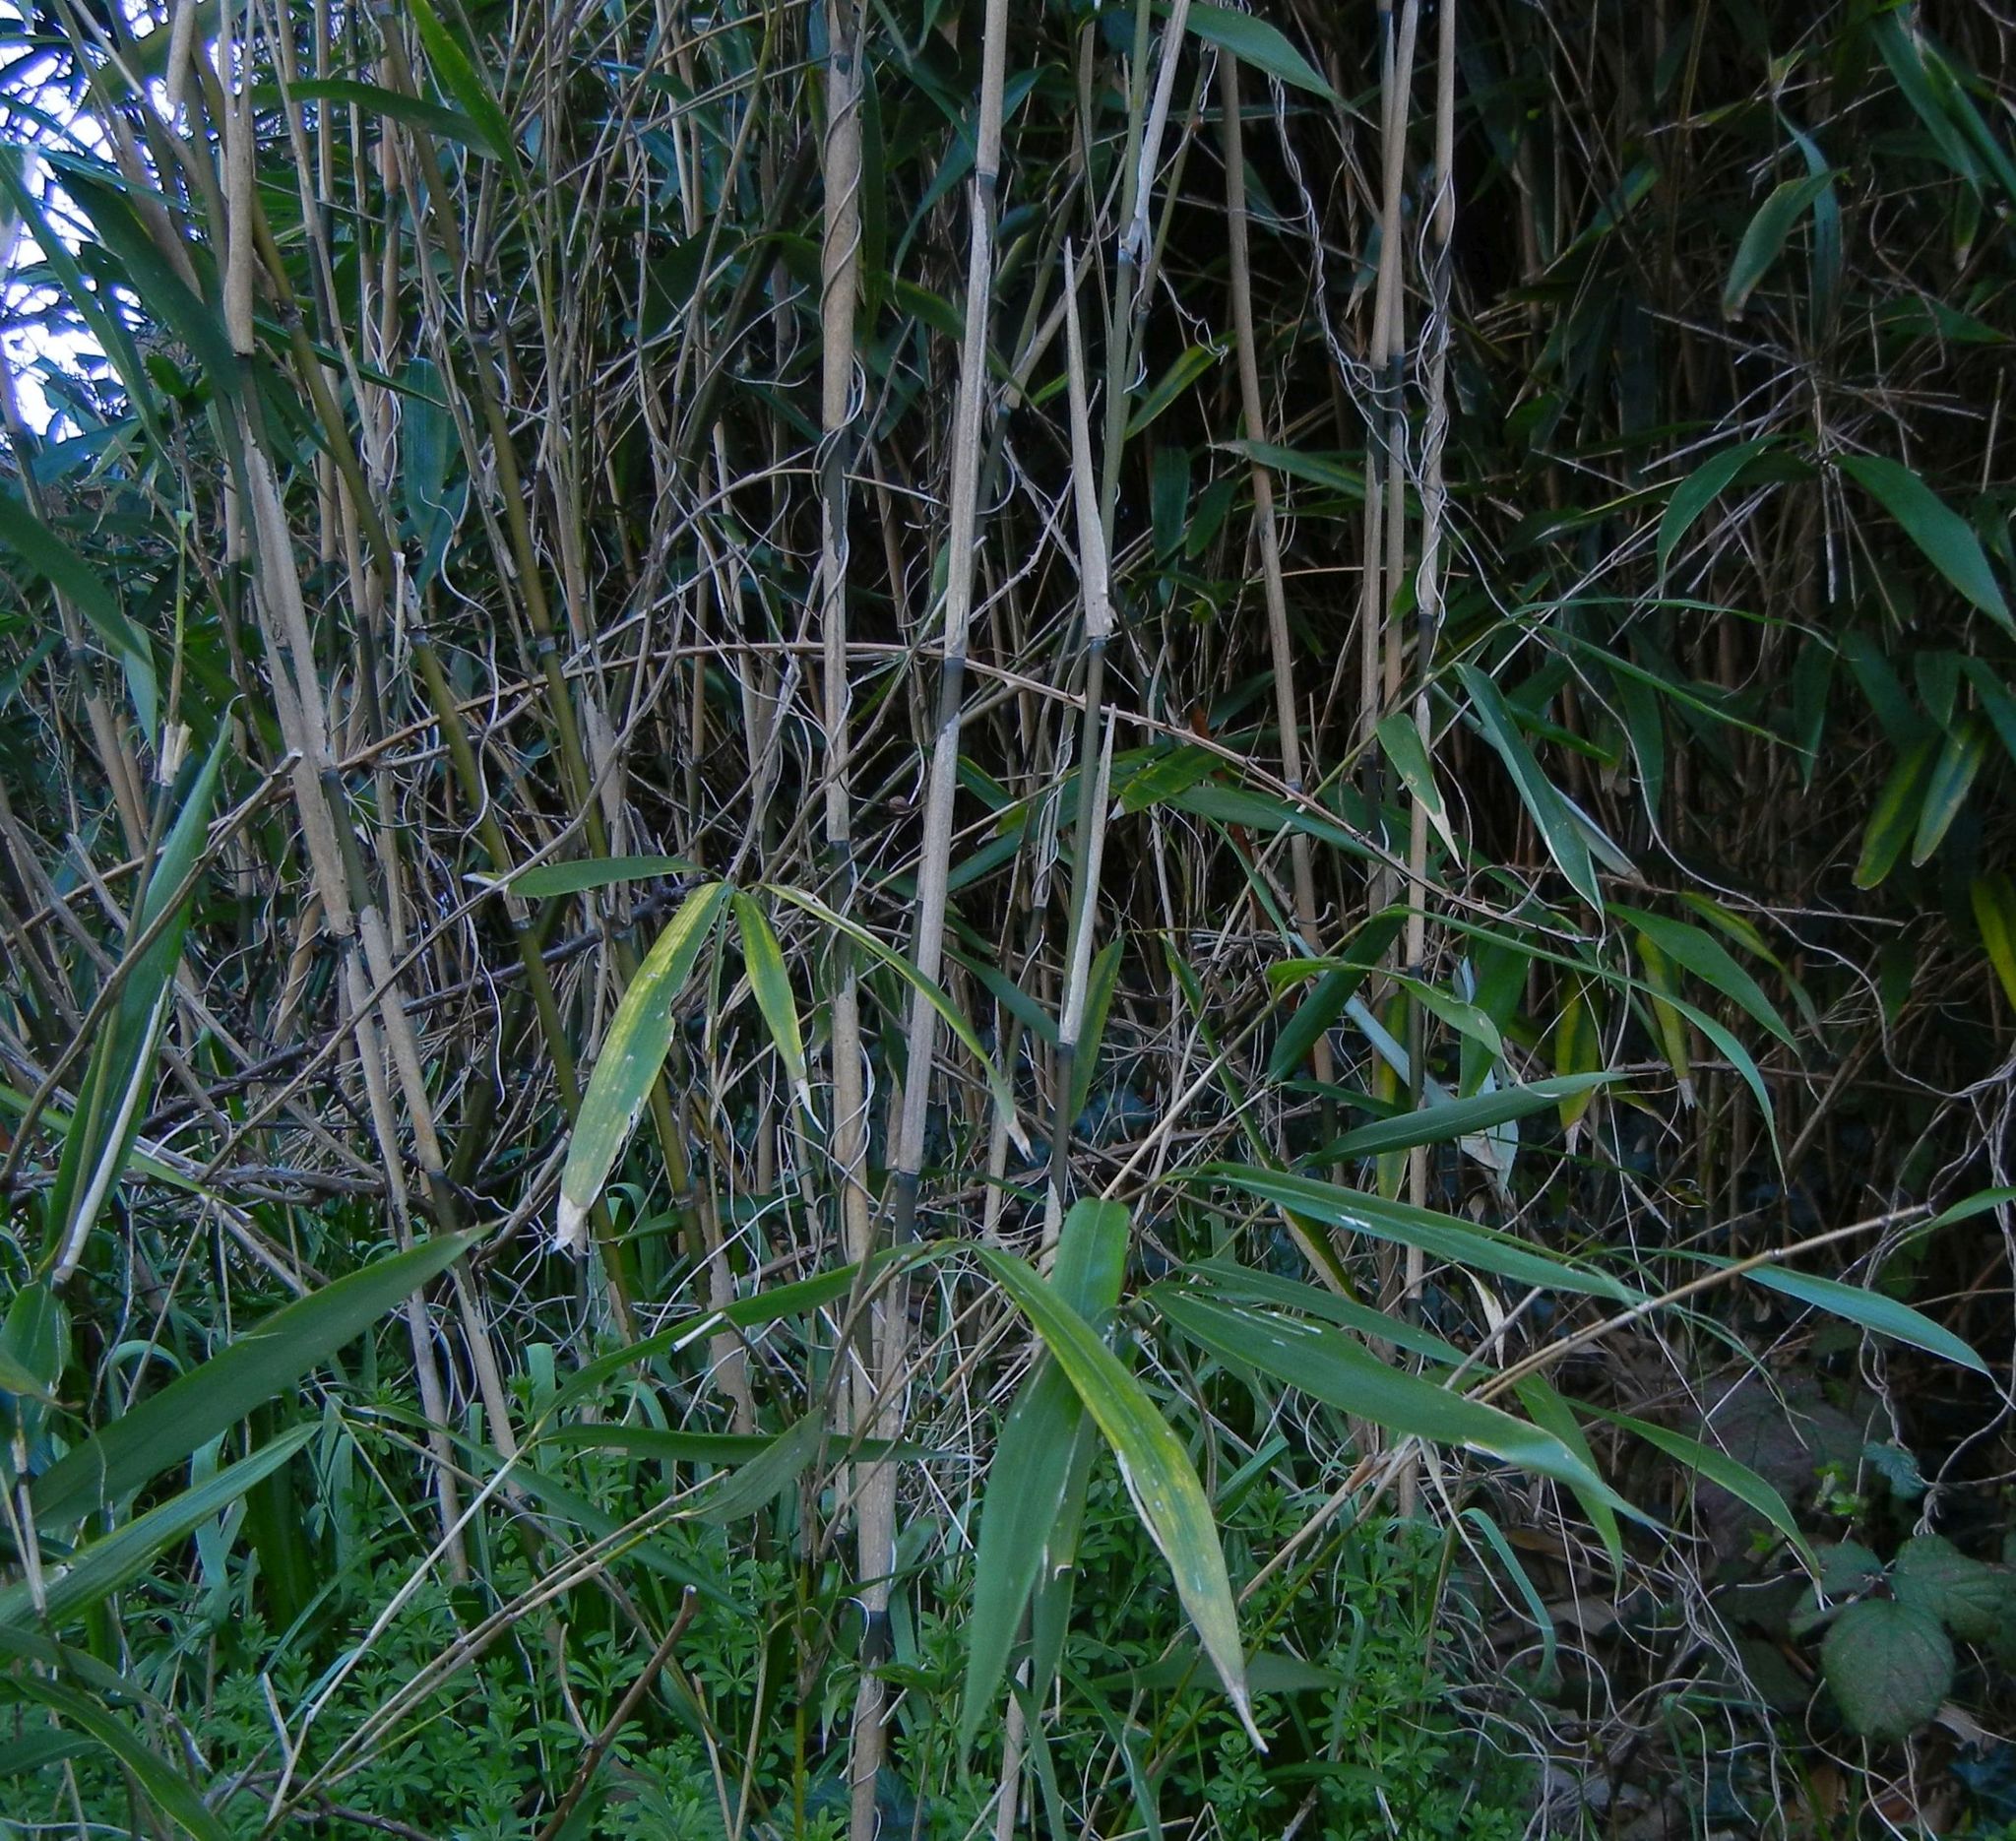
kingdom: Plantae
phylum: Tracheophyta
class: Liliopsida
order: Poales
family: Poaceae
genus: Pseudosasa
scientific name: Pseudosasa japonica
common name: Arrow bamboo
